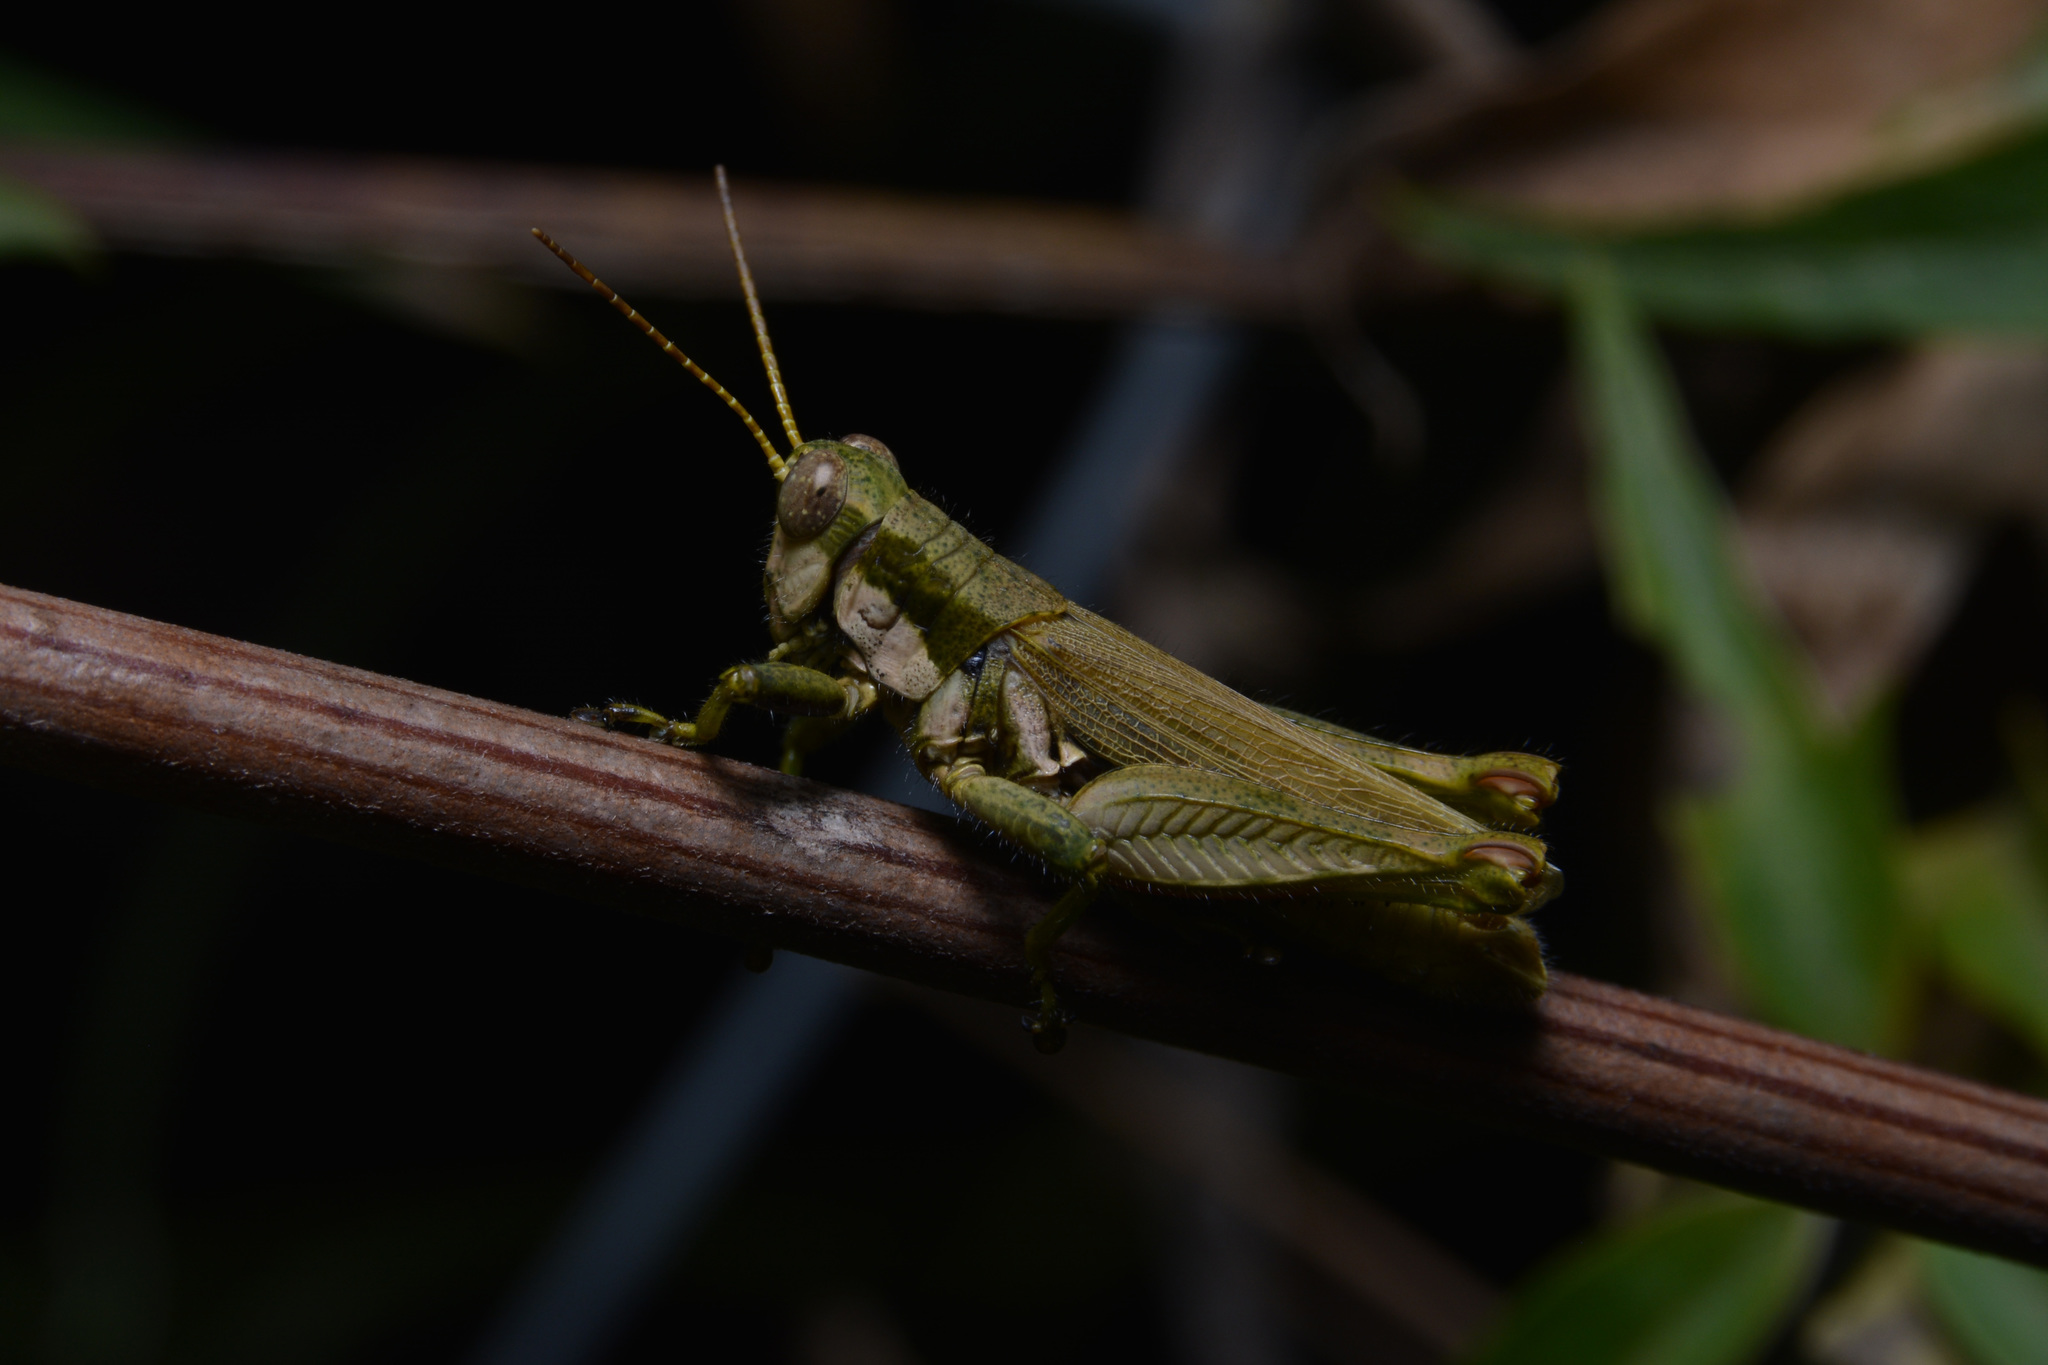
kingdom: Animalia
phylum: Arthropoda
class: Insecta
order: Orthoptera
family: Acrididae
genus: Ronderosia
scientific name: Ronderosia bergii
